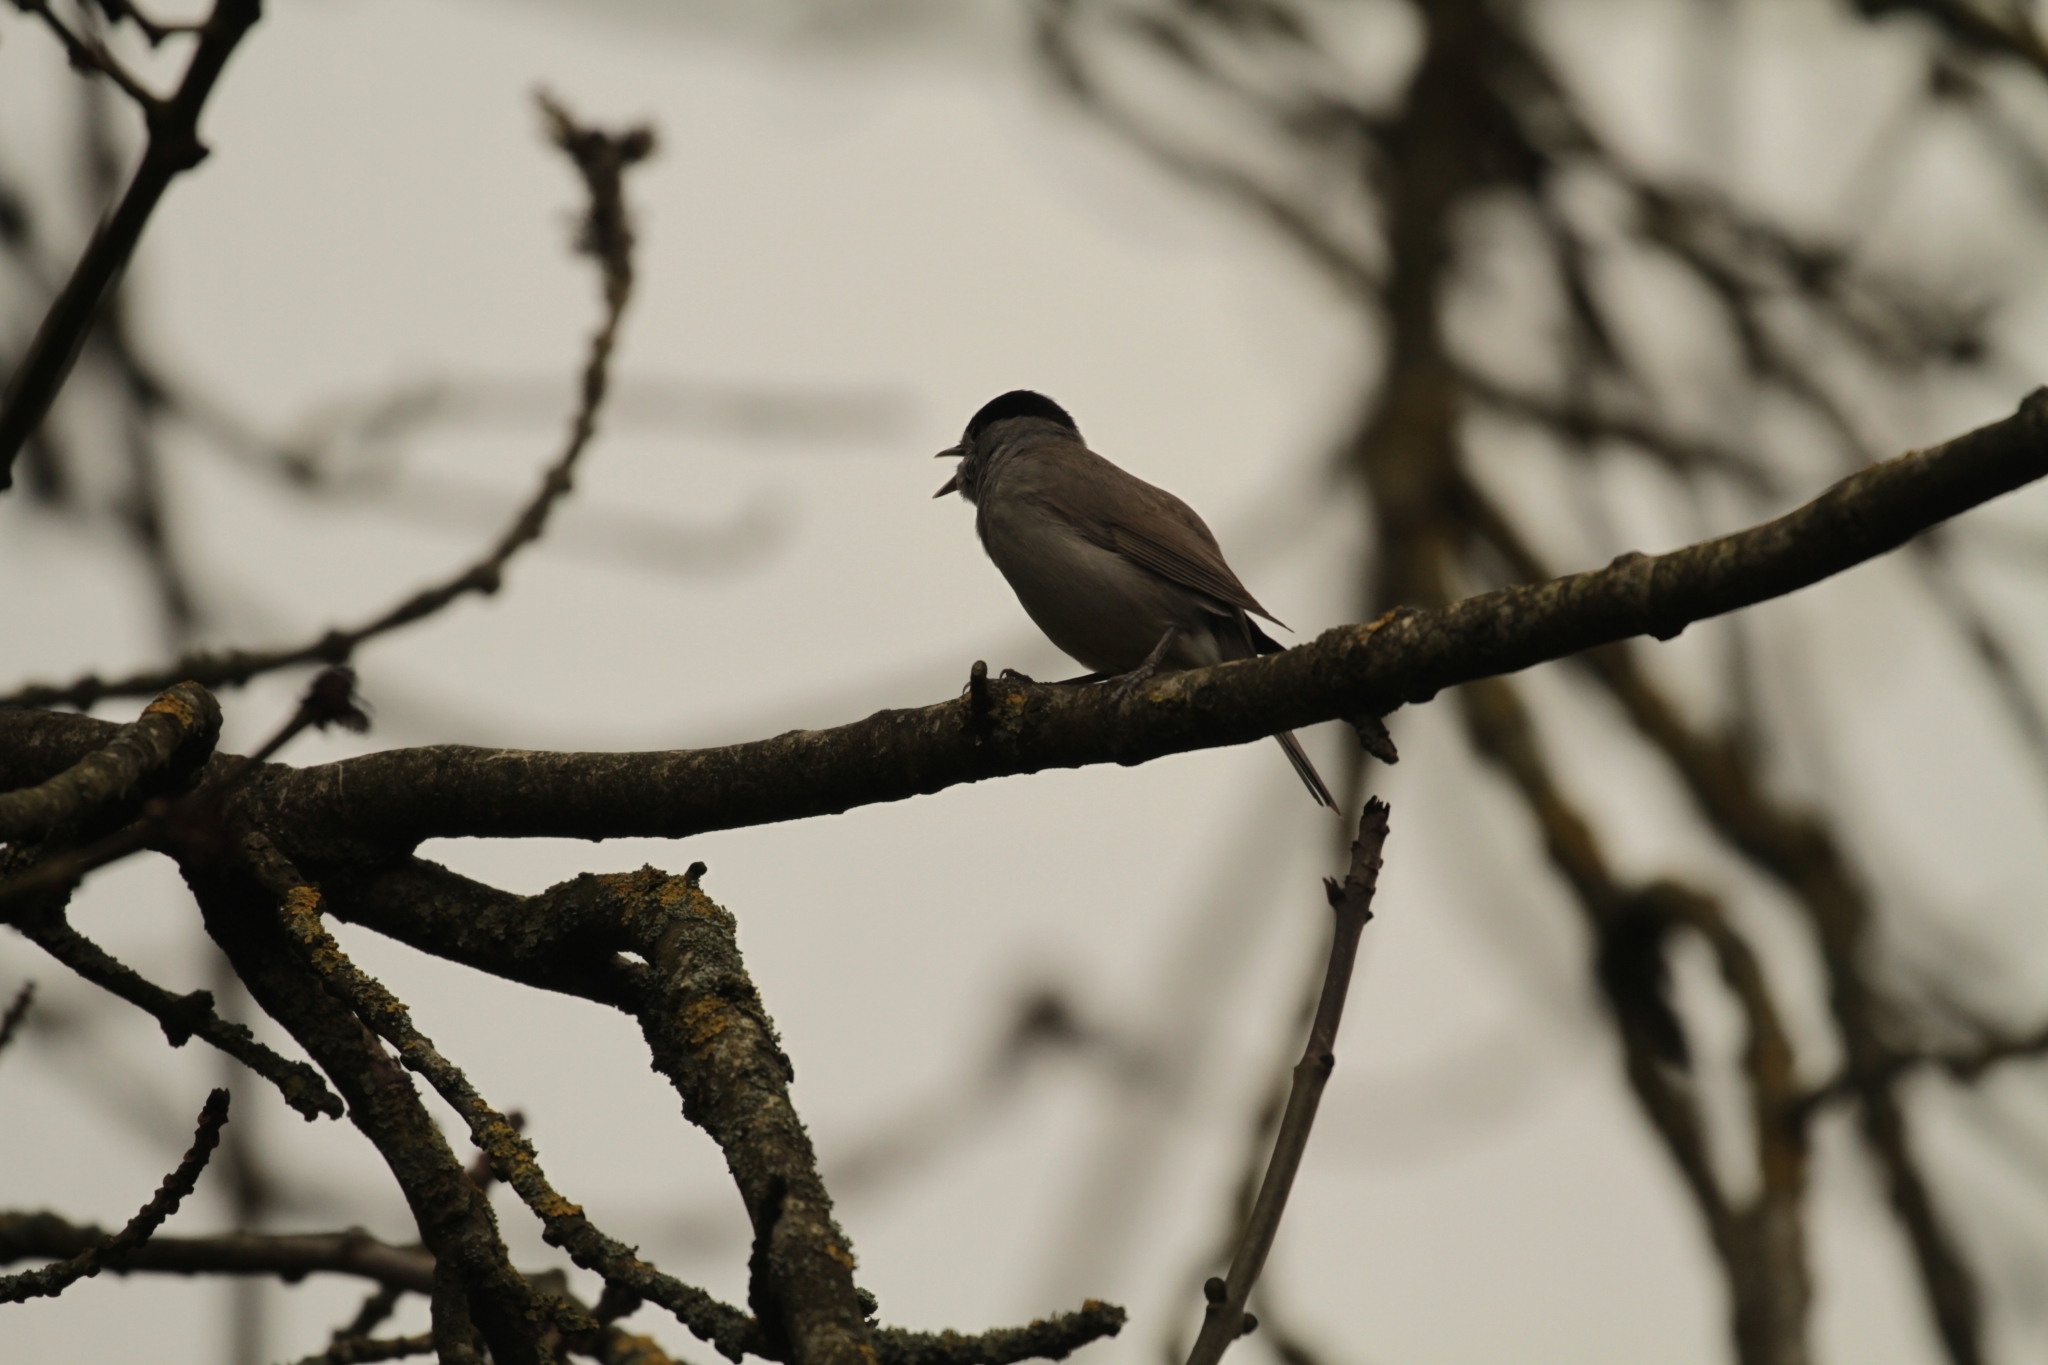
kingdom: Animalia
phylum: Chordata
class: Aves
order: Passeriformes
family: Sylviidae
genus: Sylvia
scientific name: Sylvia atricapilla
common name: Eurasian blackcap
